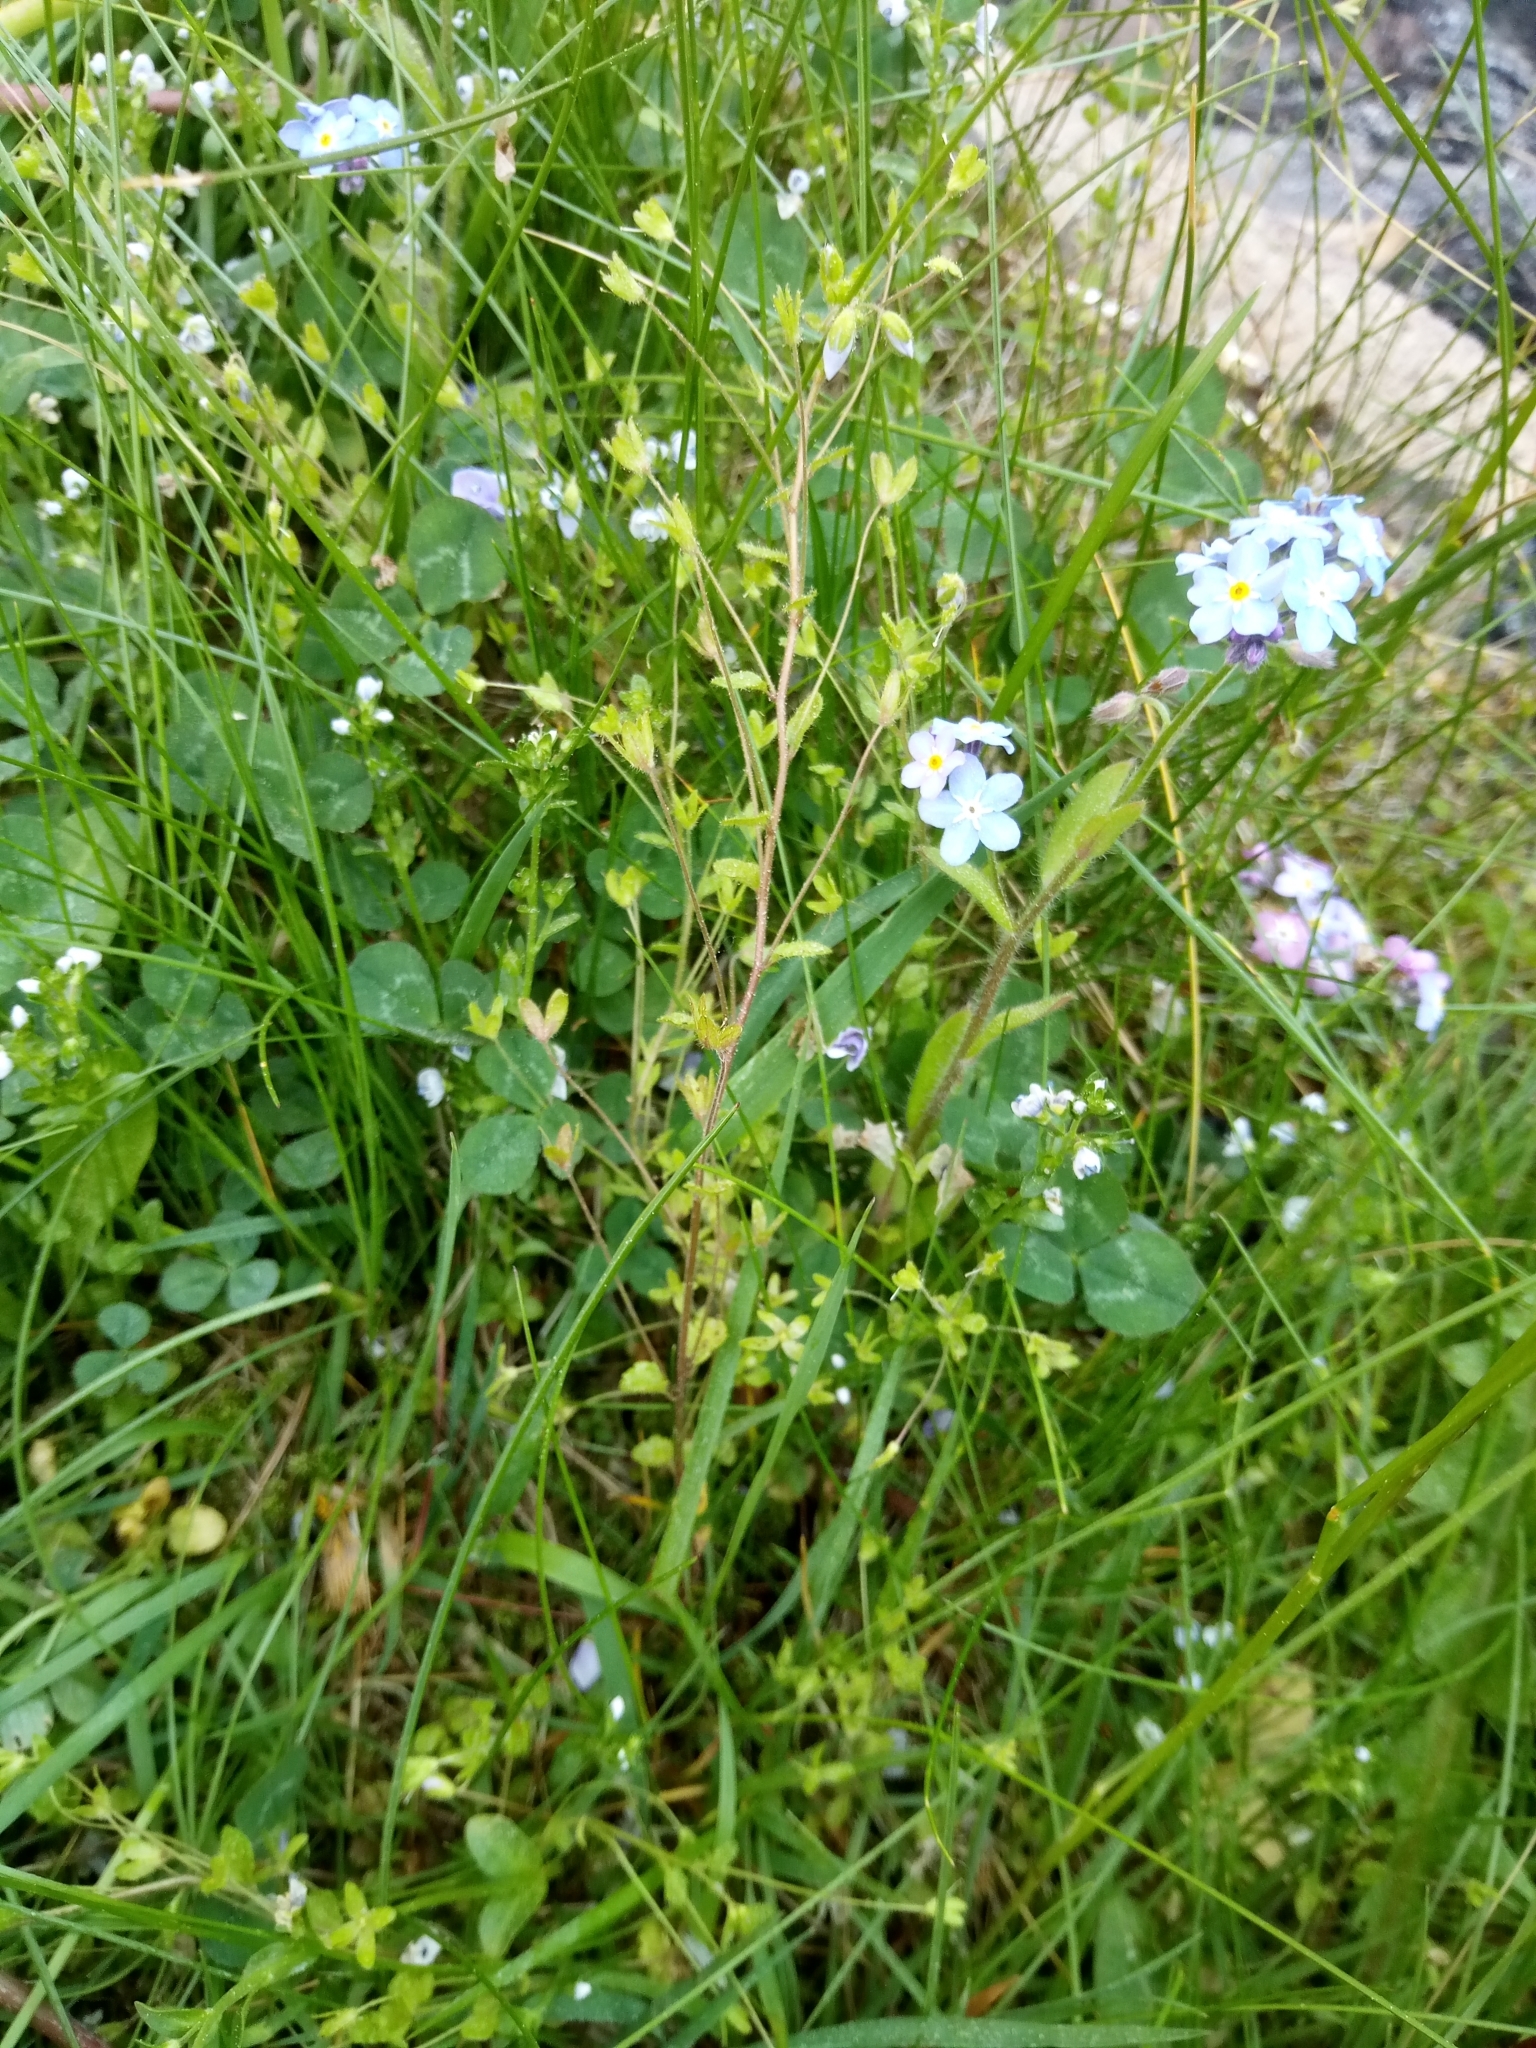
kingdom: Plantae
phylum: Tracheophyta
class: Magnoliopsida
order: Lamiales
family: Plantaginaceae
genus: Veronica
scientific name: Veronica filiformis
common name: Slender speedwell
